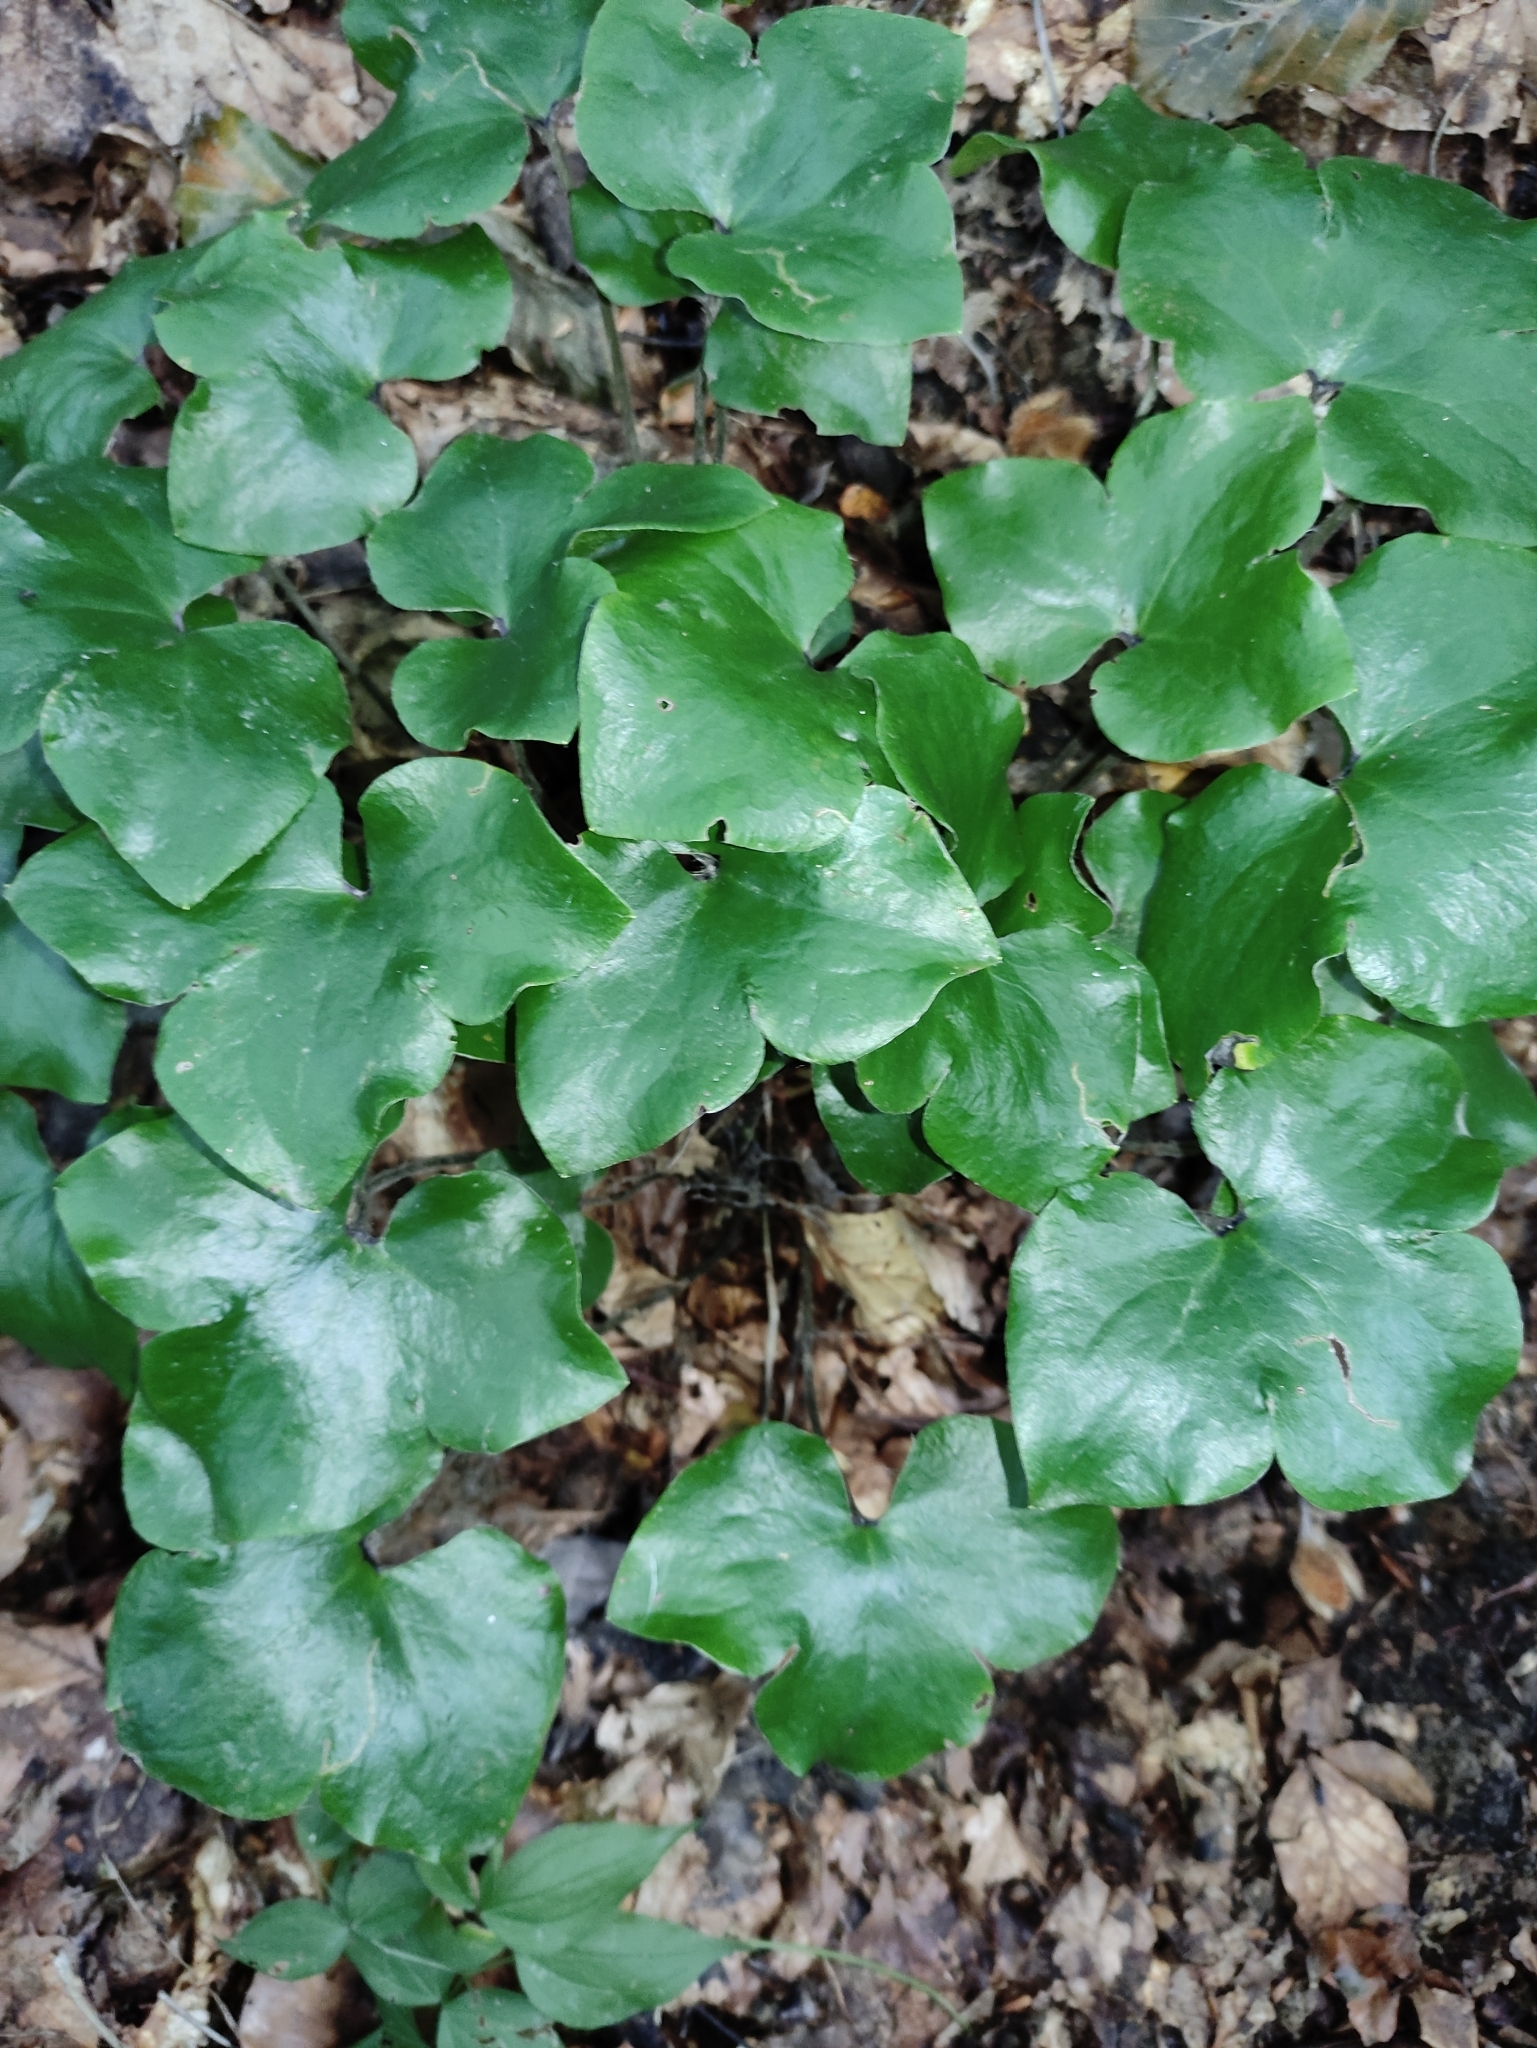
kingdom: Plantae
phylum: Tracheophyta
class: Magnoliopsida
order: Ranunculales
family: Ranunculaceae
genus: Hepatica
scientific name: Hepatica nobilis
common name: Liverleaf
